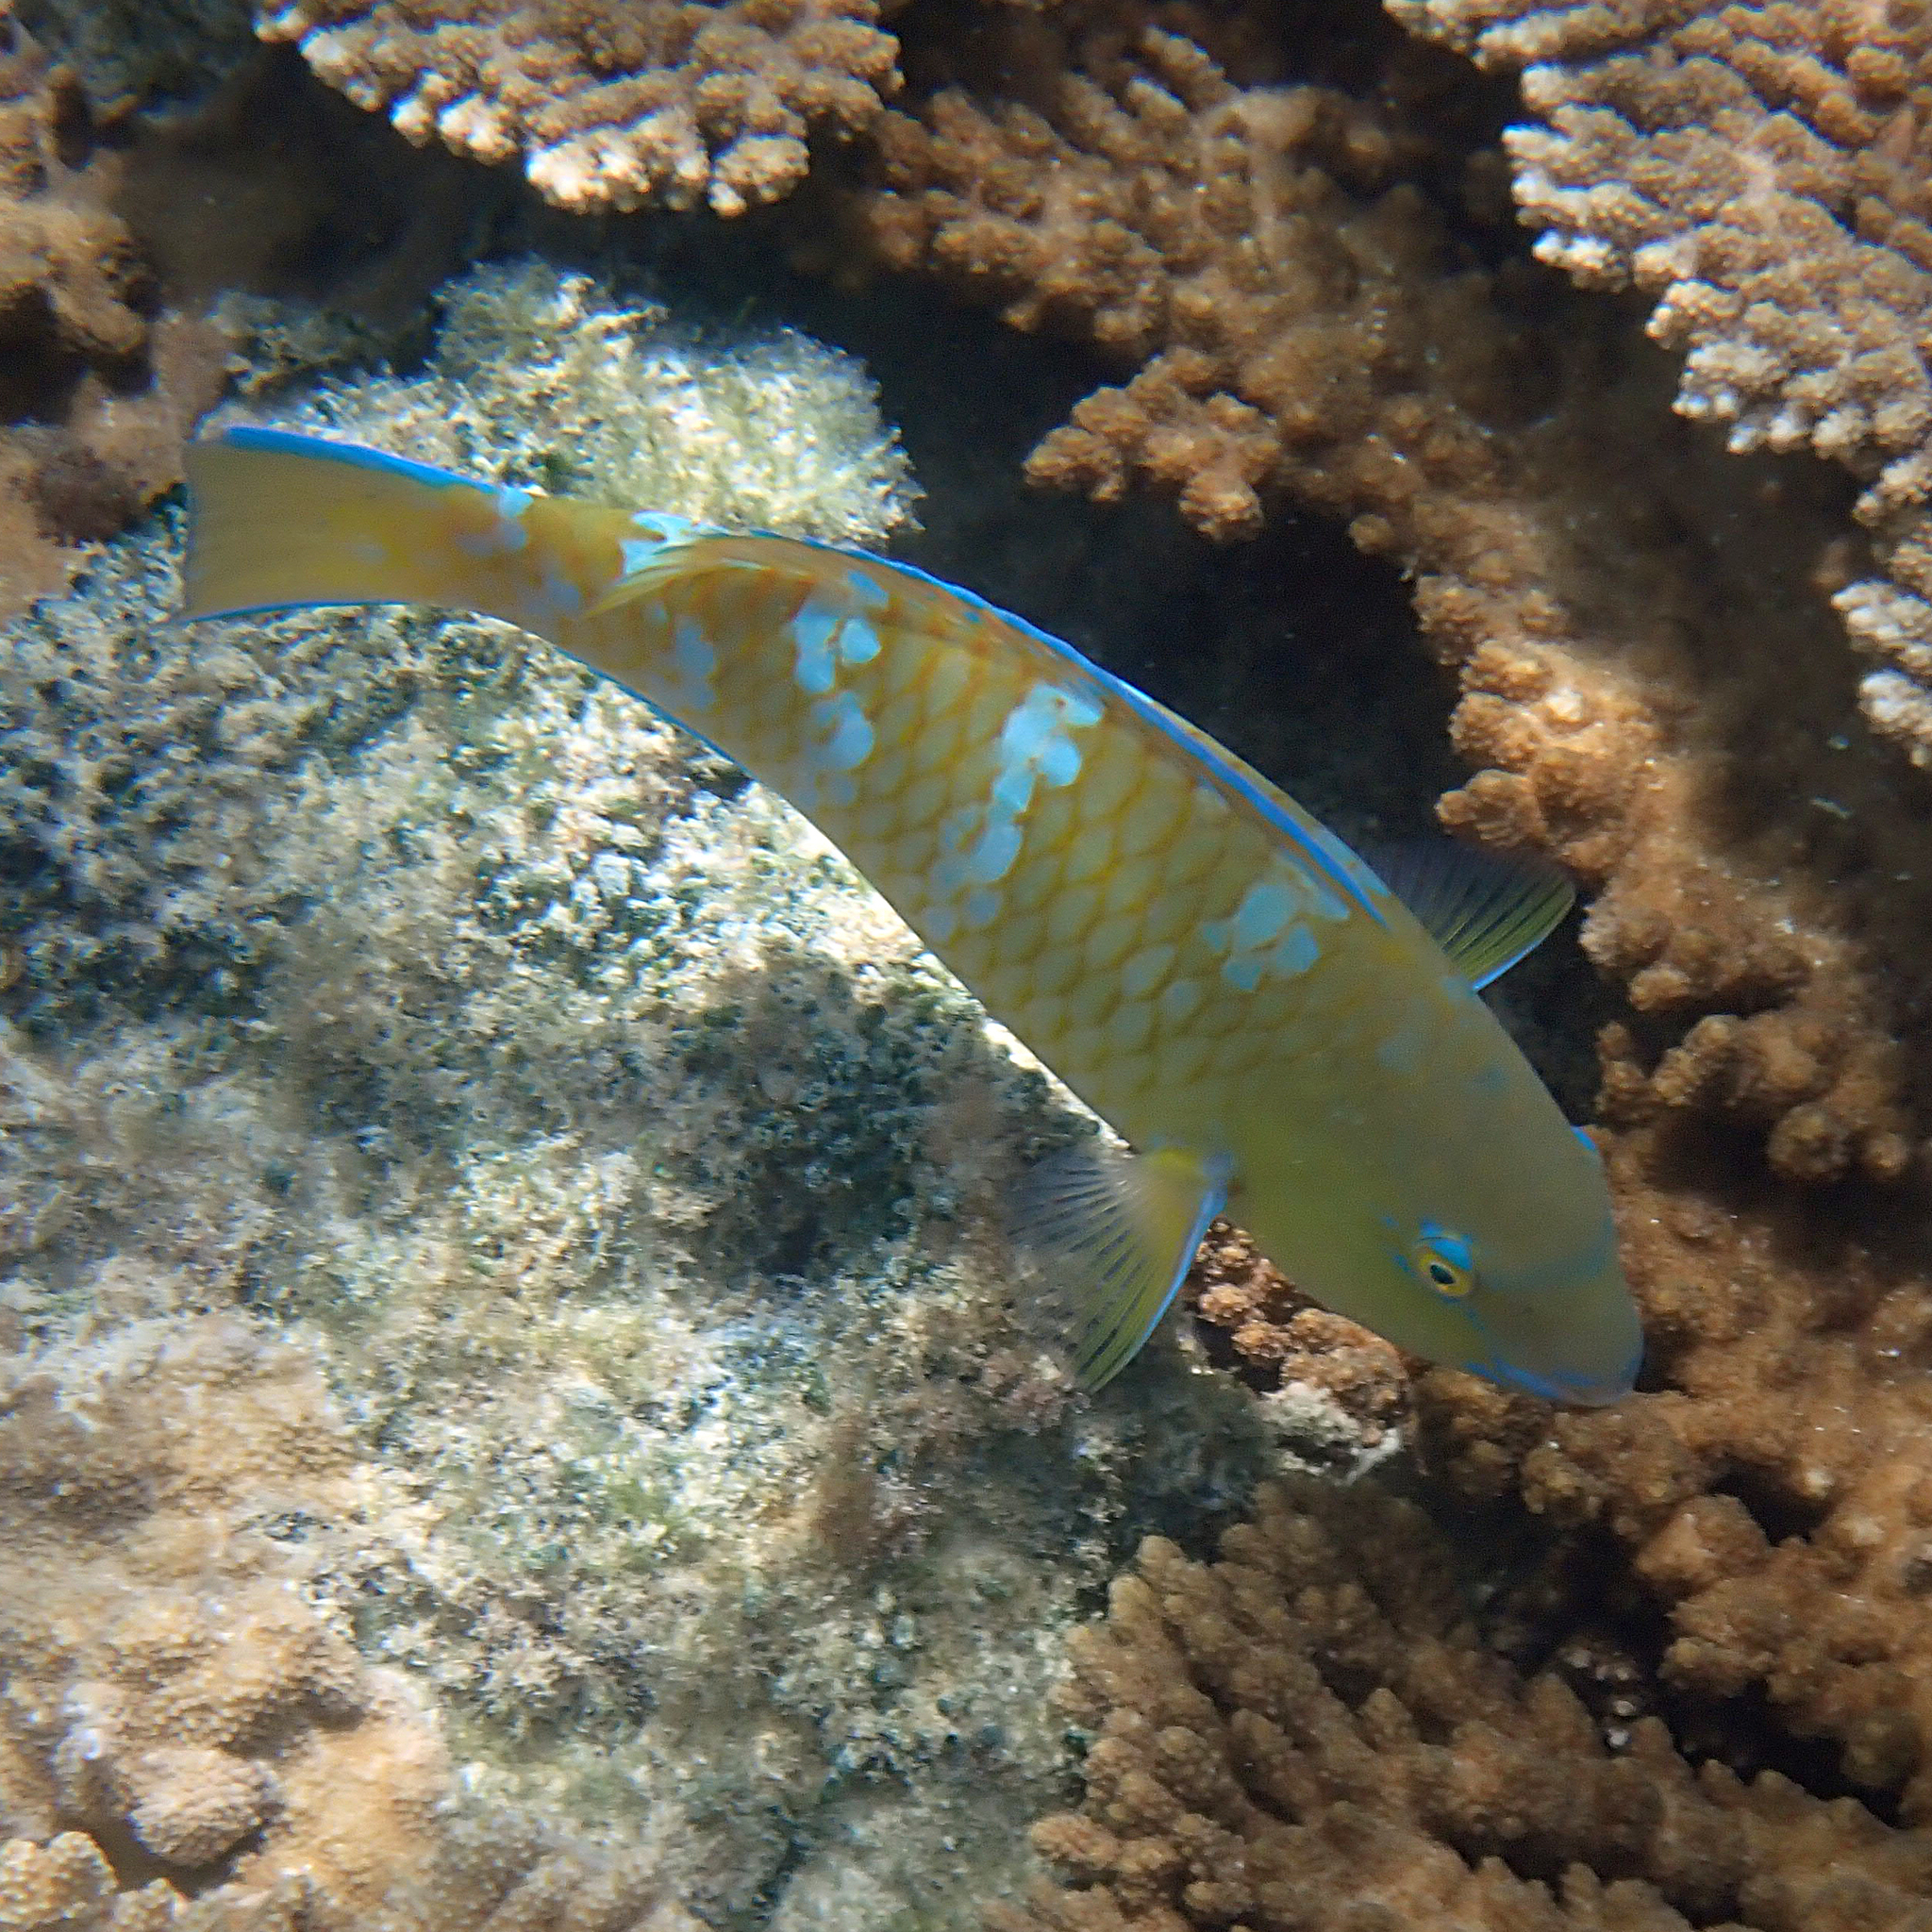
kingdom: Animalia
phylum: Chordata
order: Perciformes
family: Scaridae
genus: Scarus
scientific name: Scarus ghobban
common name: Blue-barred parrotfish
